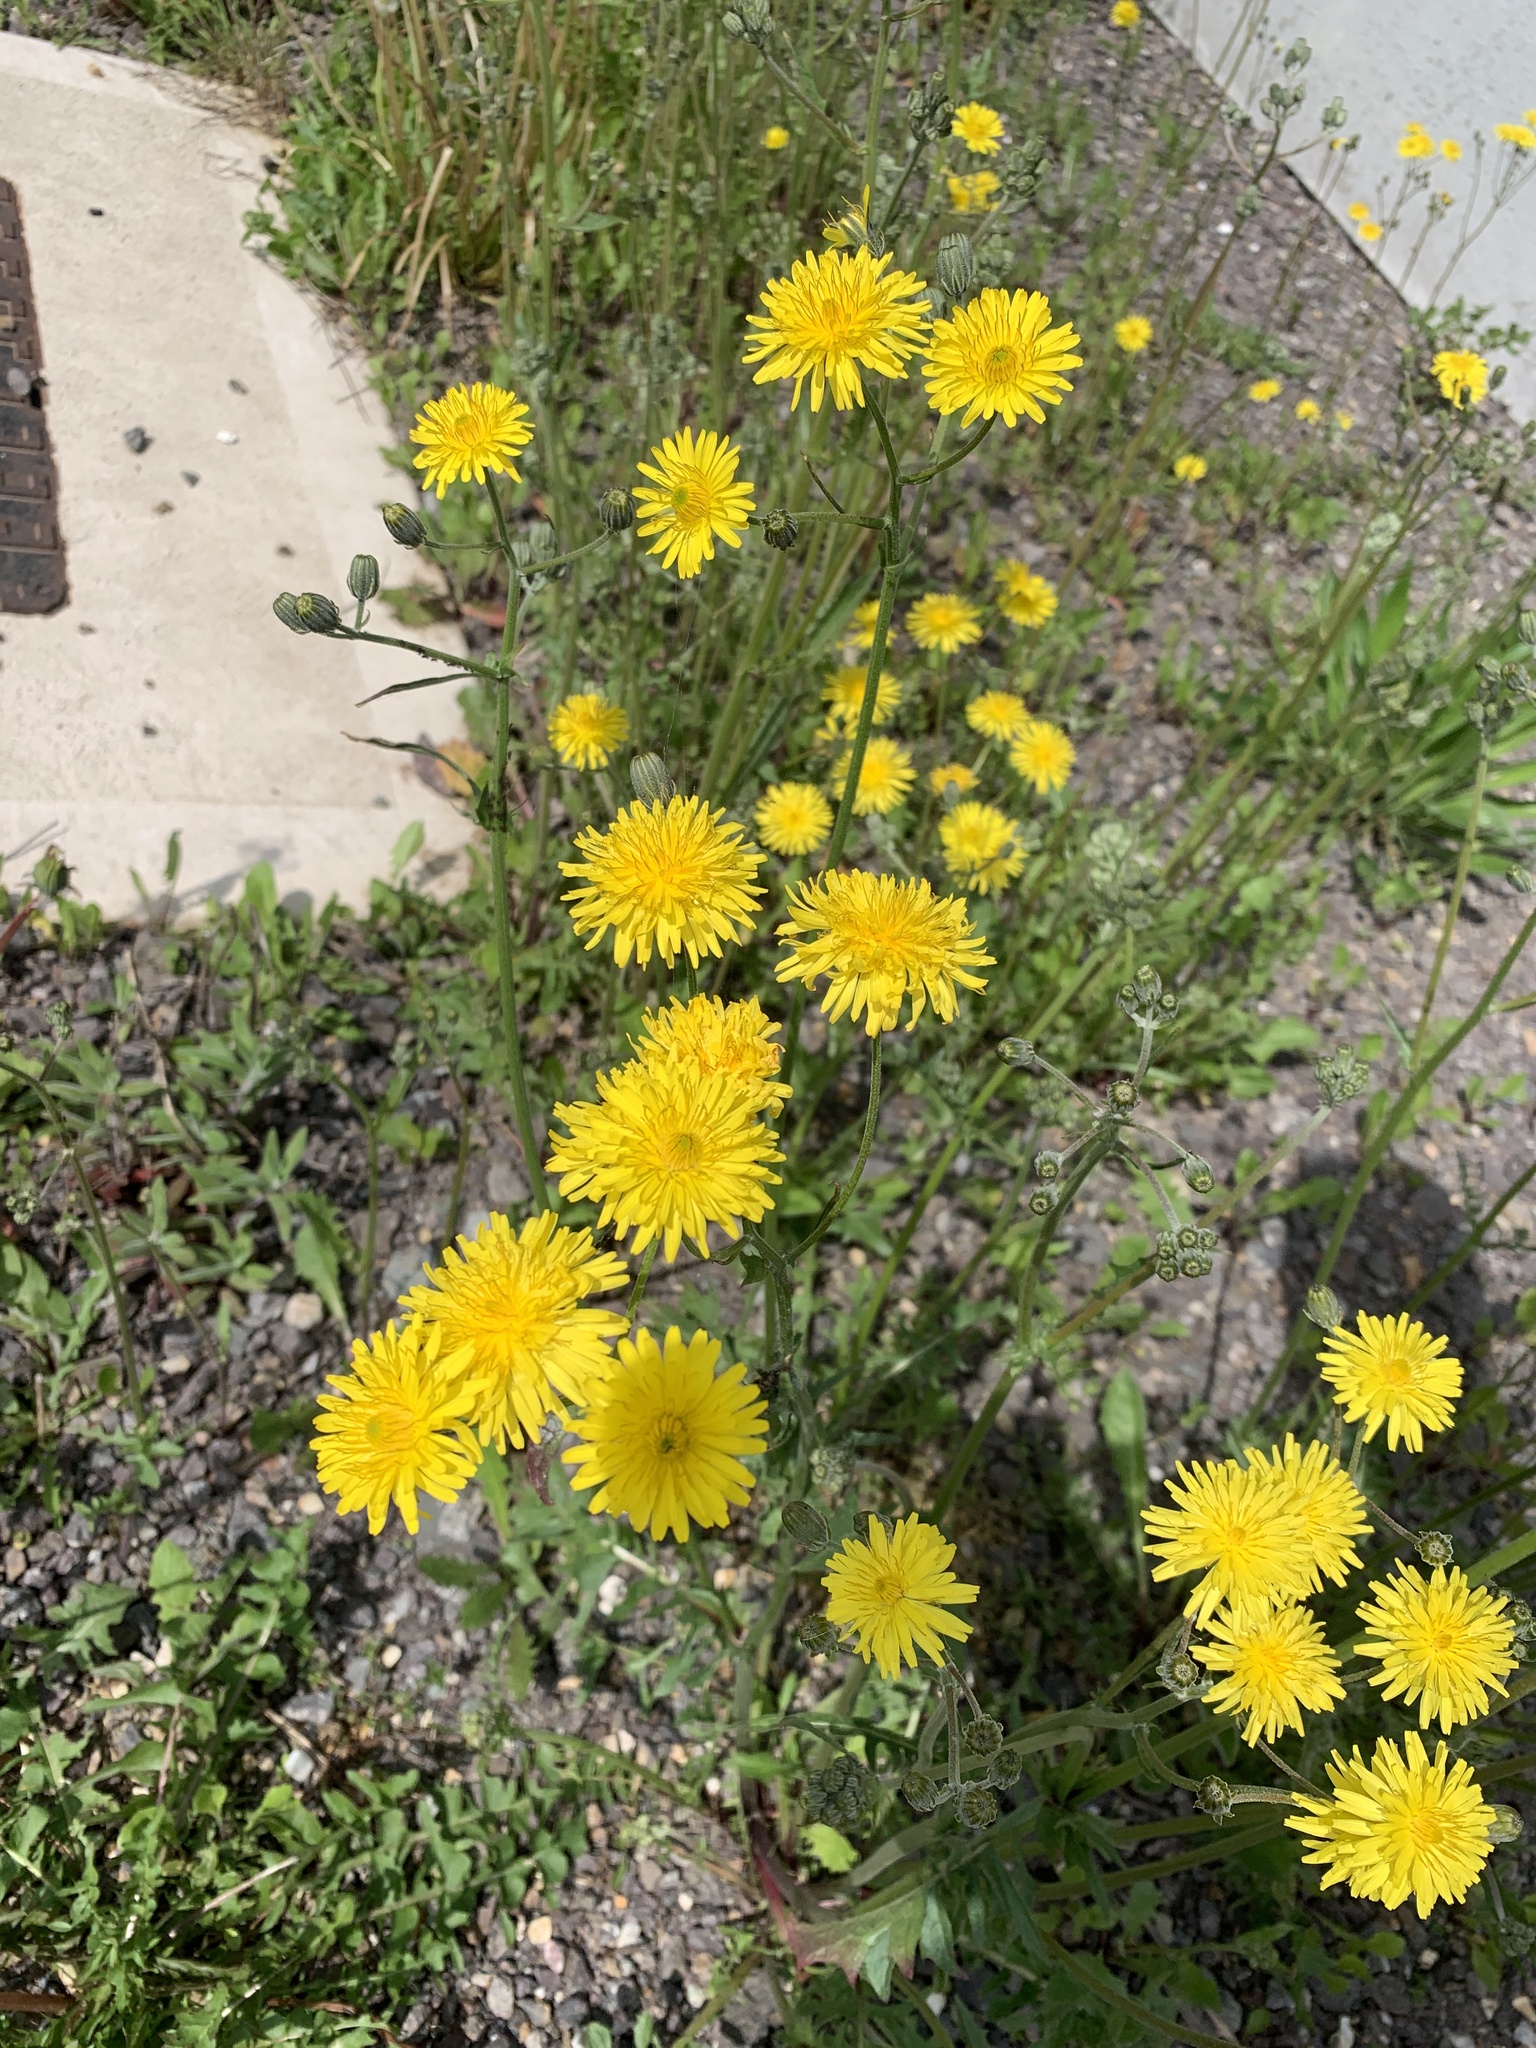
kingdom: Plantae
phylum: Tracheophyta
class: Magnoliopsida
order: Asterales
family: Asteraceae
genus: Crepis
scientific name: Crepis vesicaria
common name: Beaked hawksbeard
